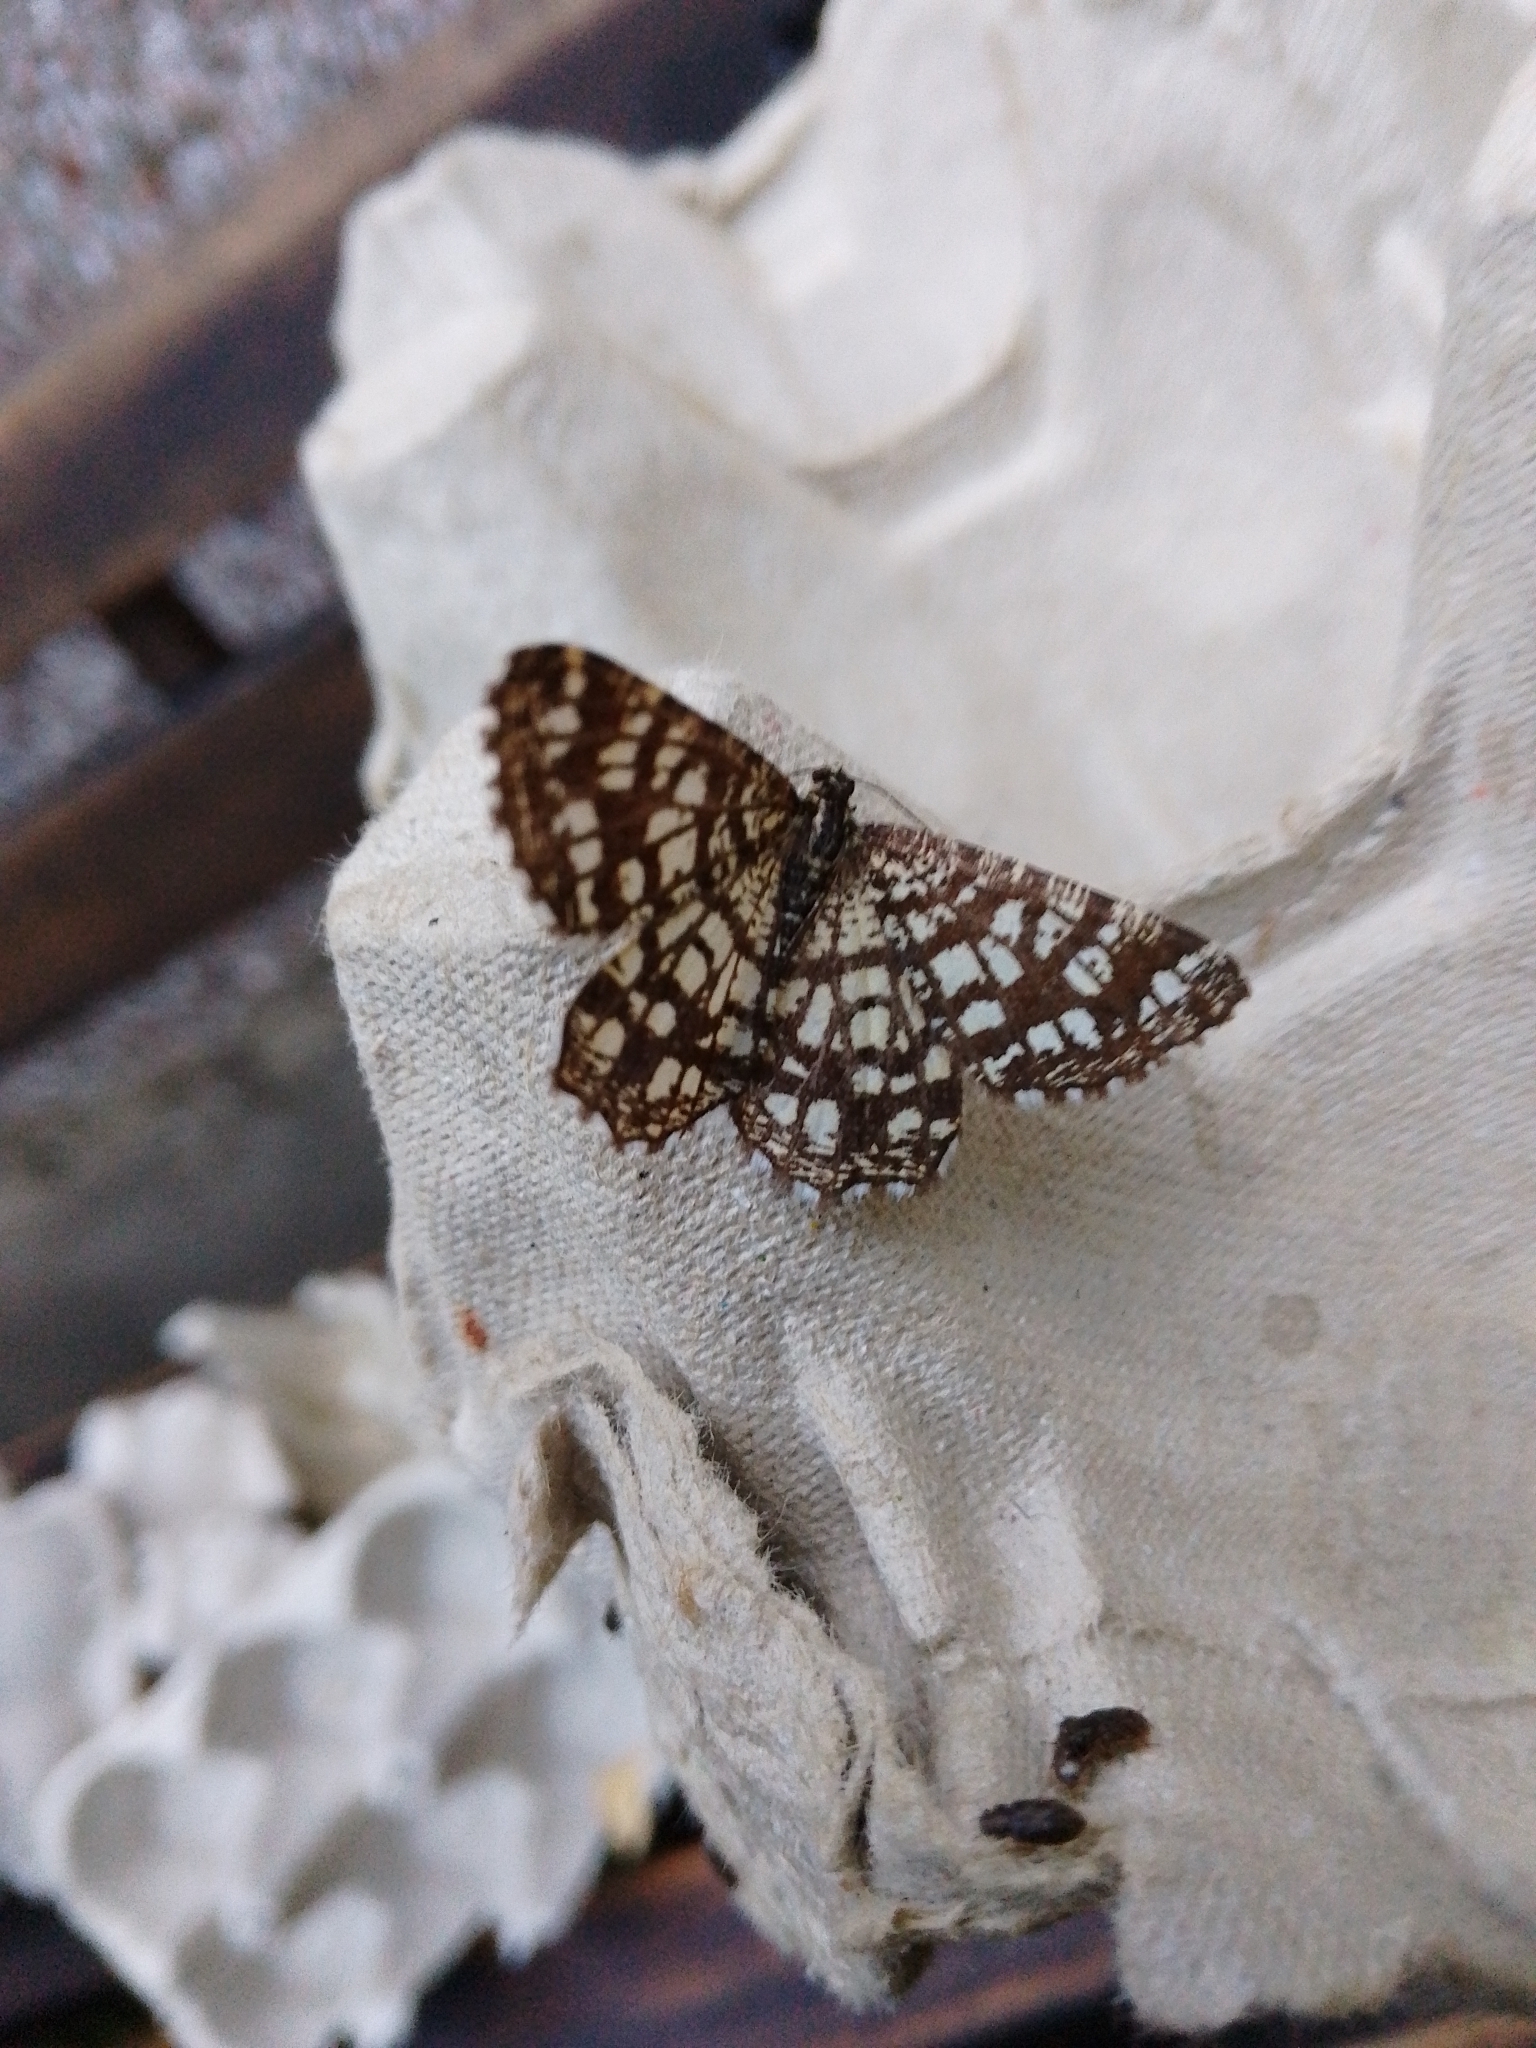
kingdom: Animalia
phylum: Arthropoda
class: Insecta
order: Lepidoptera
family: Geometridae
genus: Chiasmia
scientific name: Chiasmia clathrata
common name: Latticed heath
